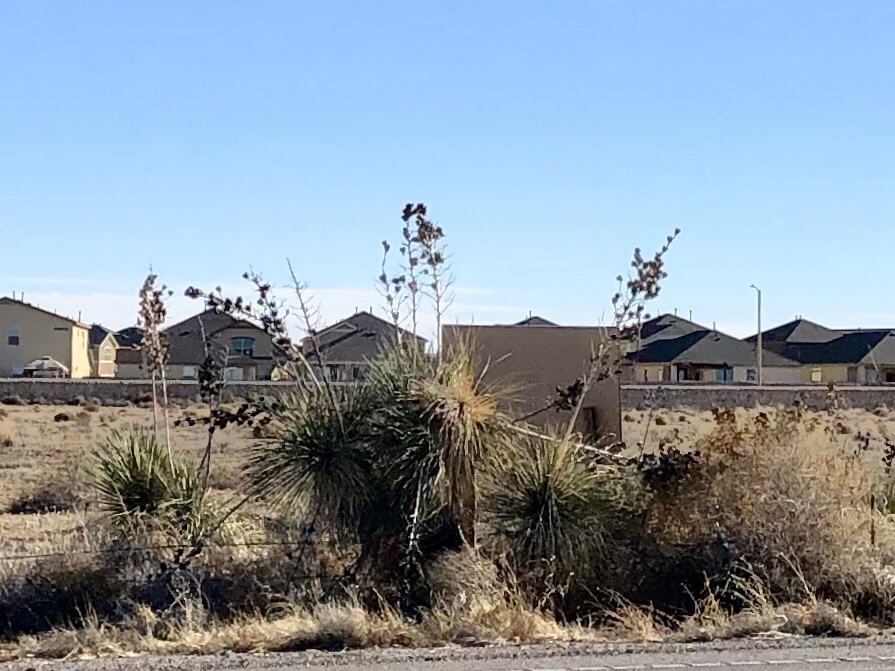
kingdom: Plantae
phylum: Tracheophyta
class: Liliopsida
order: Asparagales
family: Asparagaceae
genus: Yucca
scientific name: Yucca elata
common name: Palmella
